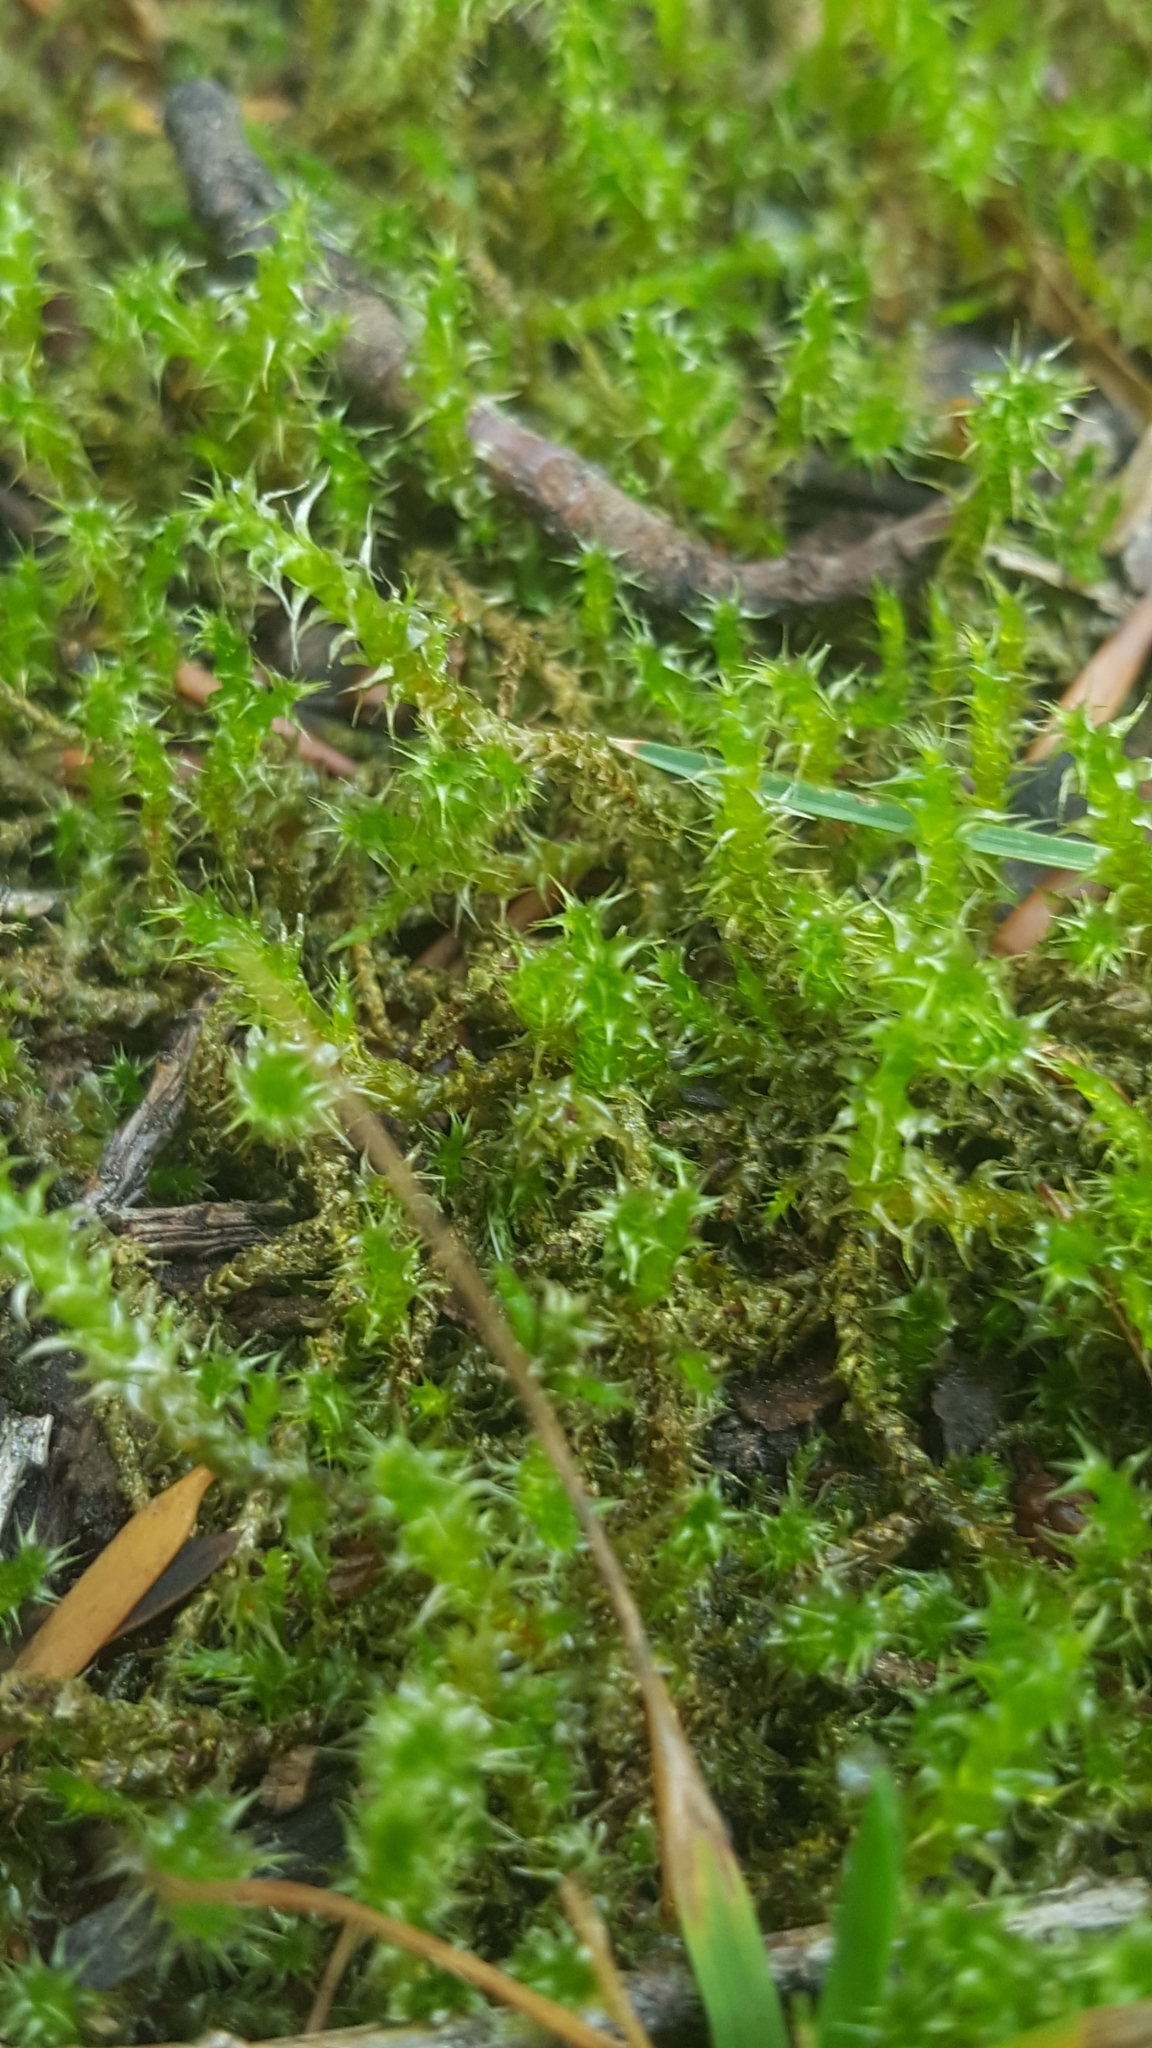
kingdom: Plantae
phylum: Bryophyta
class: Bryopsida
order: Hypnales
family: Hylocomiaceae
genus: Rhytidiadelphus
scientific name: Rhytidiadelphus squarrosus
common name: Springy turf-moss
